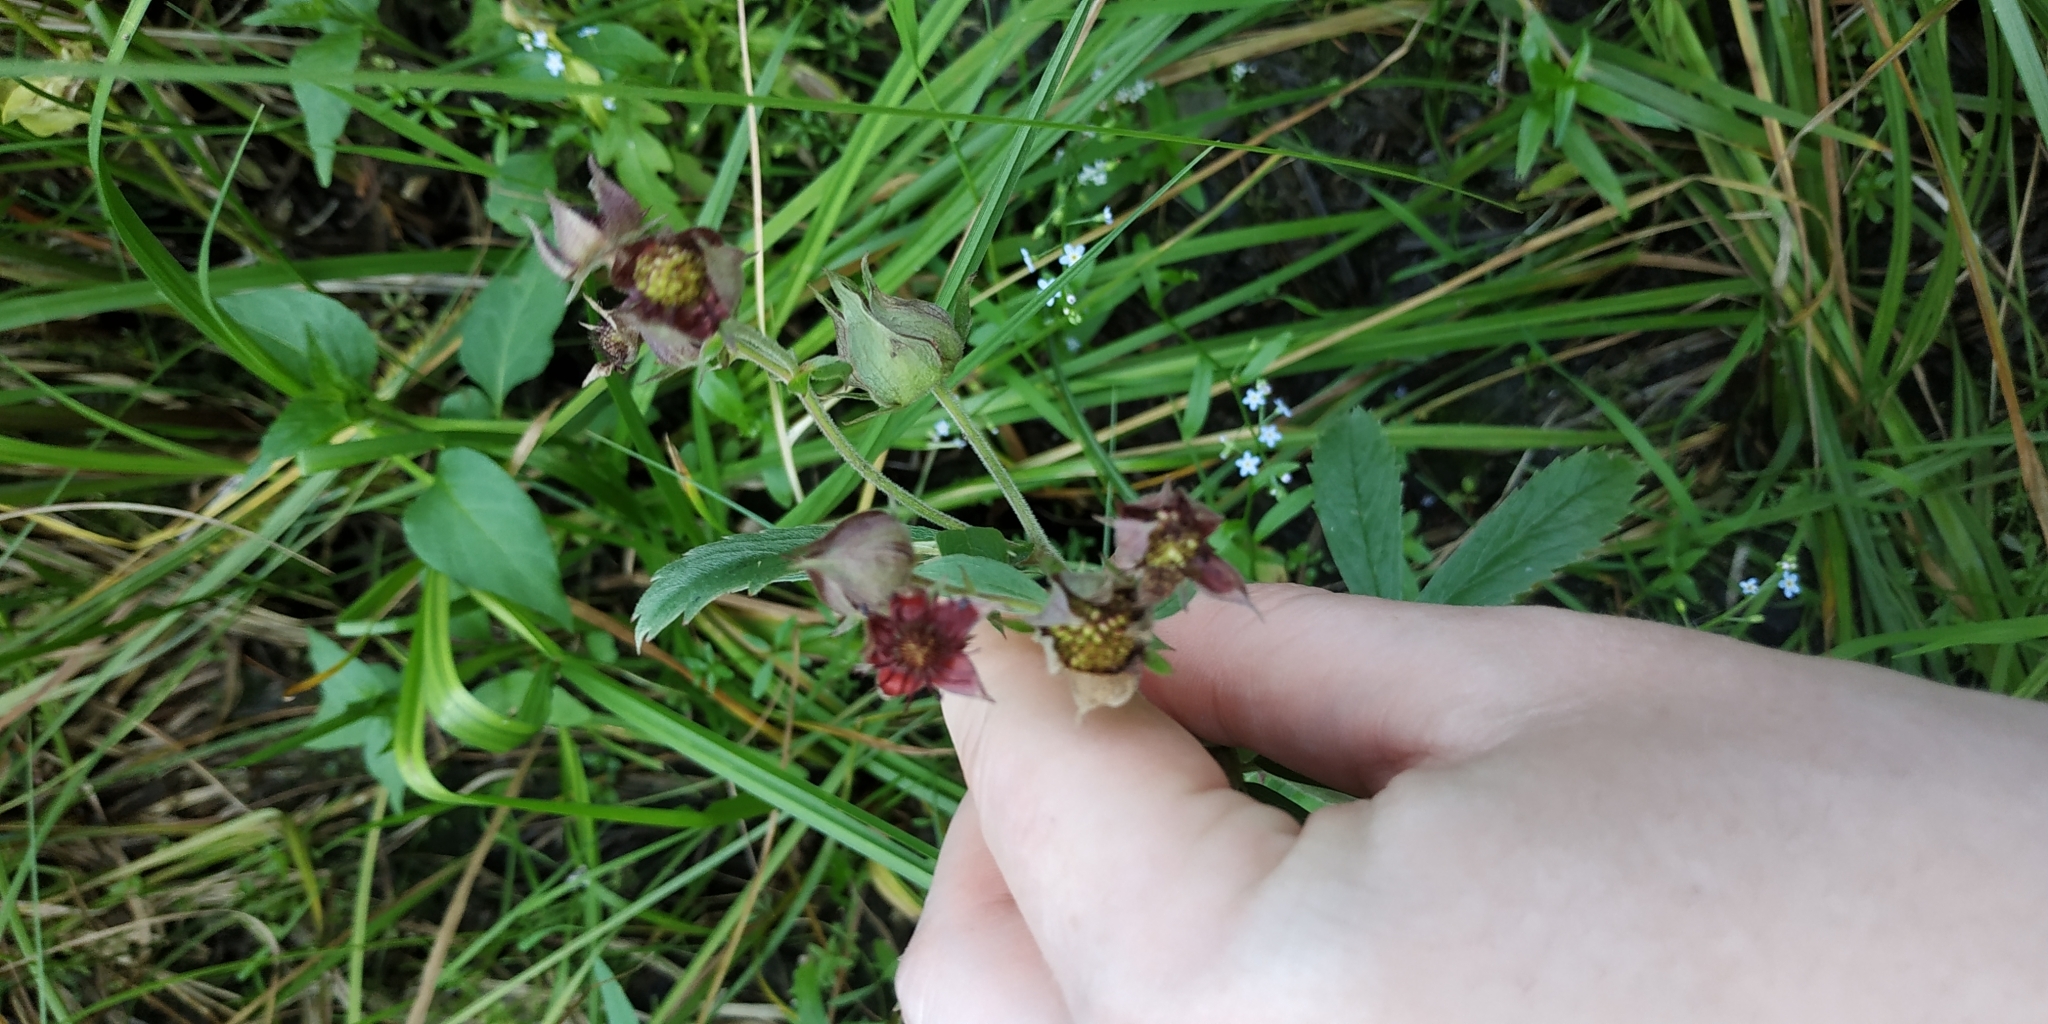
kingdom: Plantae
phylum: Tracheophyta
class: Magnoliopsida
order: Rosales
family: Rosaceae
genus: Comarum
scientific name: Comarum palustre
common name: Marsh cinquefoil
